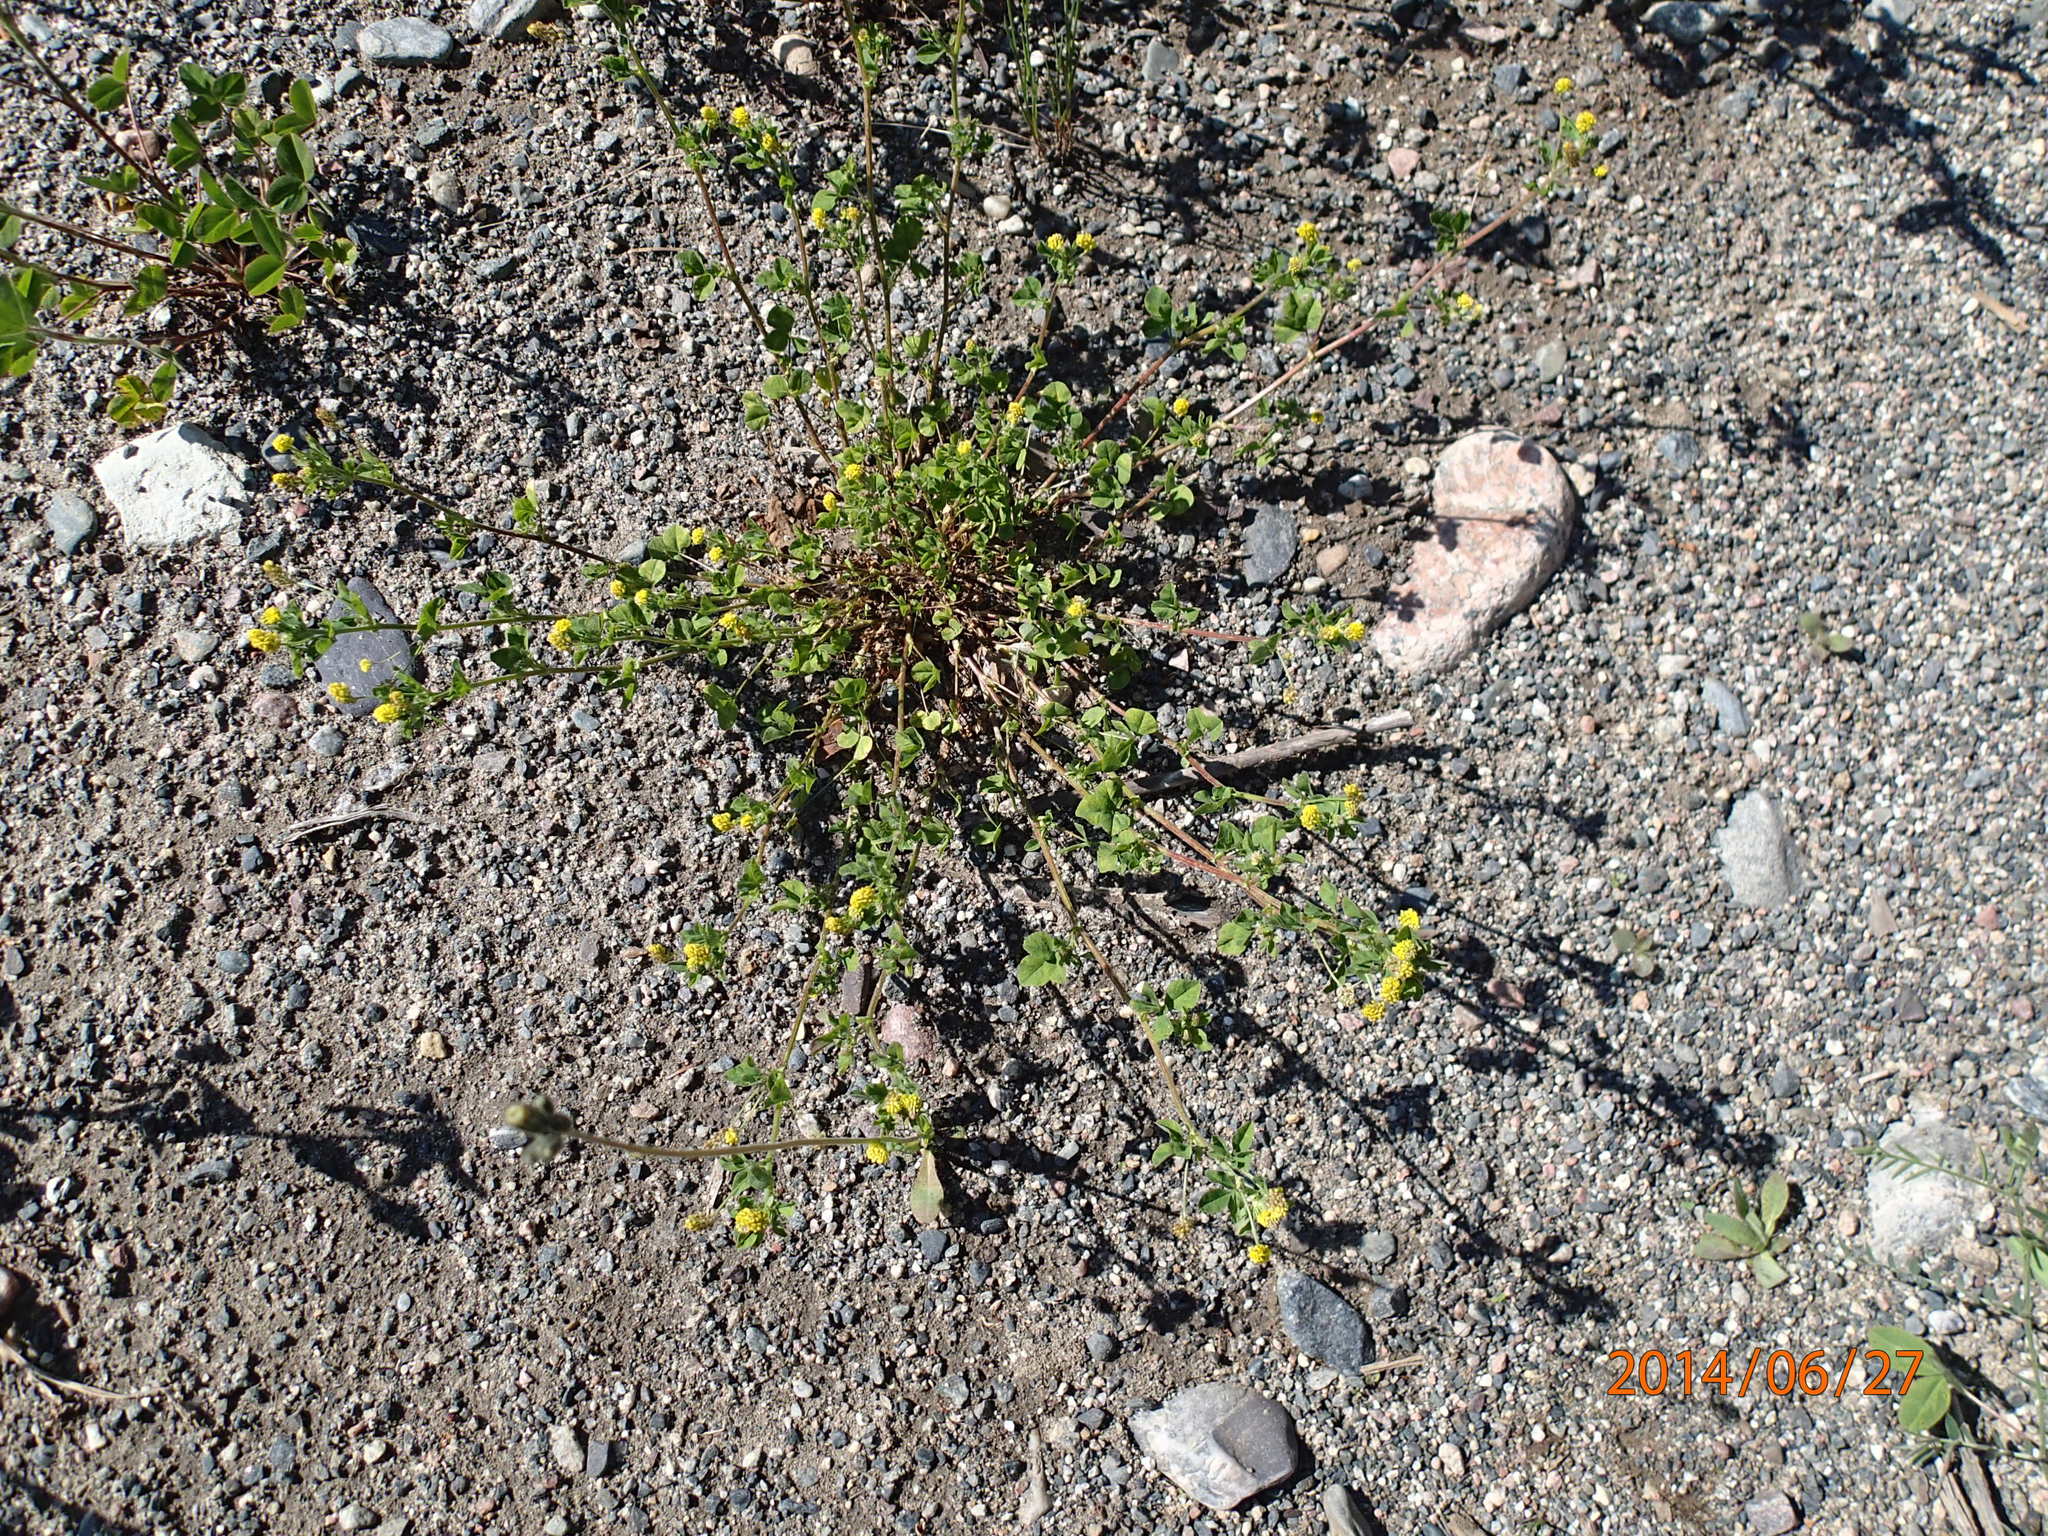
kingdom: Plantae
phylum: Tracheophyta
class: Magnoliopsida
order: Fabales
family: Fabaceae
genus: Medicago
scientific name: Medicago lupulina
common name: Black medick
